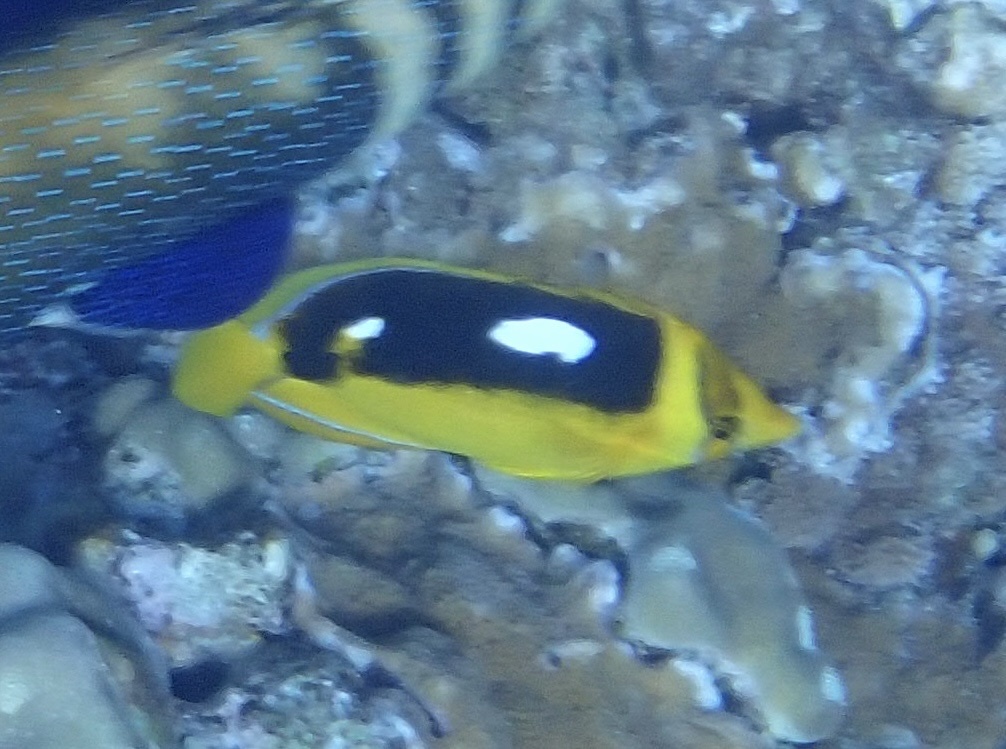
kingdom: Animalia
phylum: Chordata
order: Perciformes
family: Chaetodontidae
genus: Chaetodon
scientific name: Chaetodon quadrimaculatus
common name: Fourspot butterflyfish
